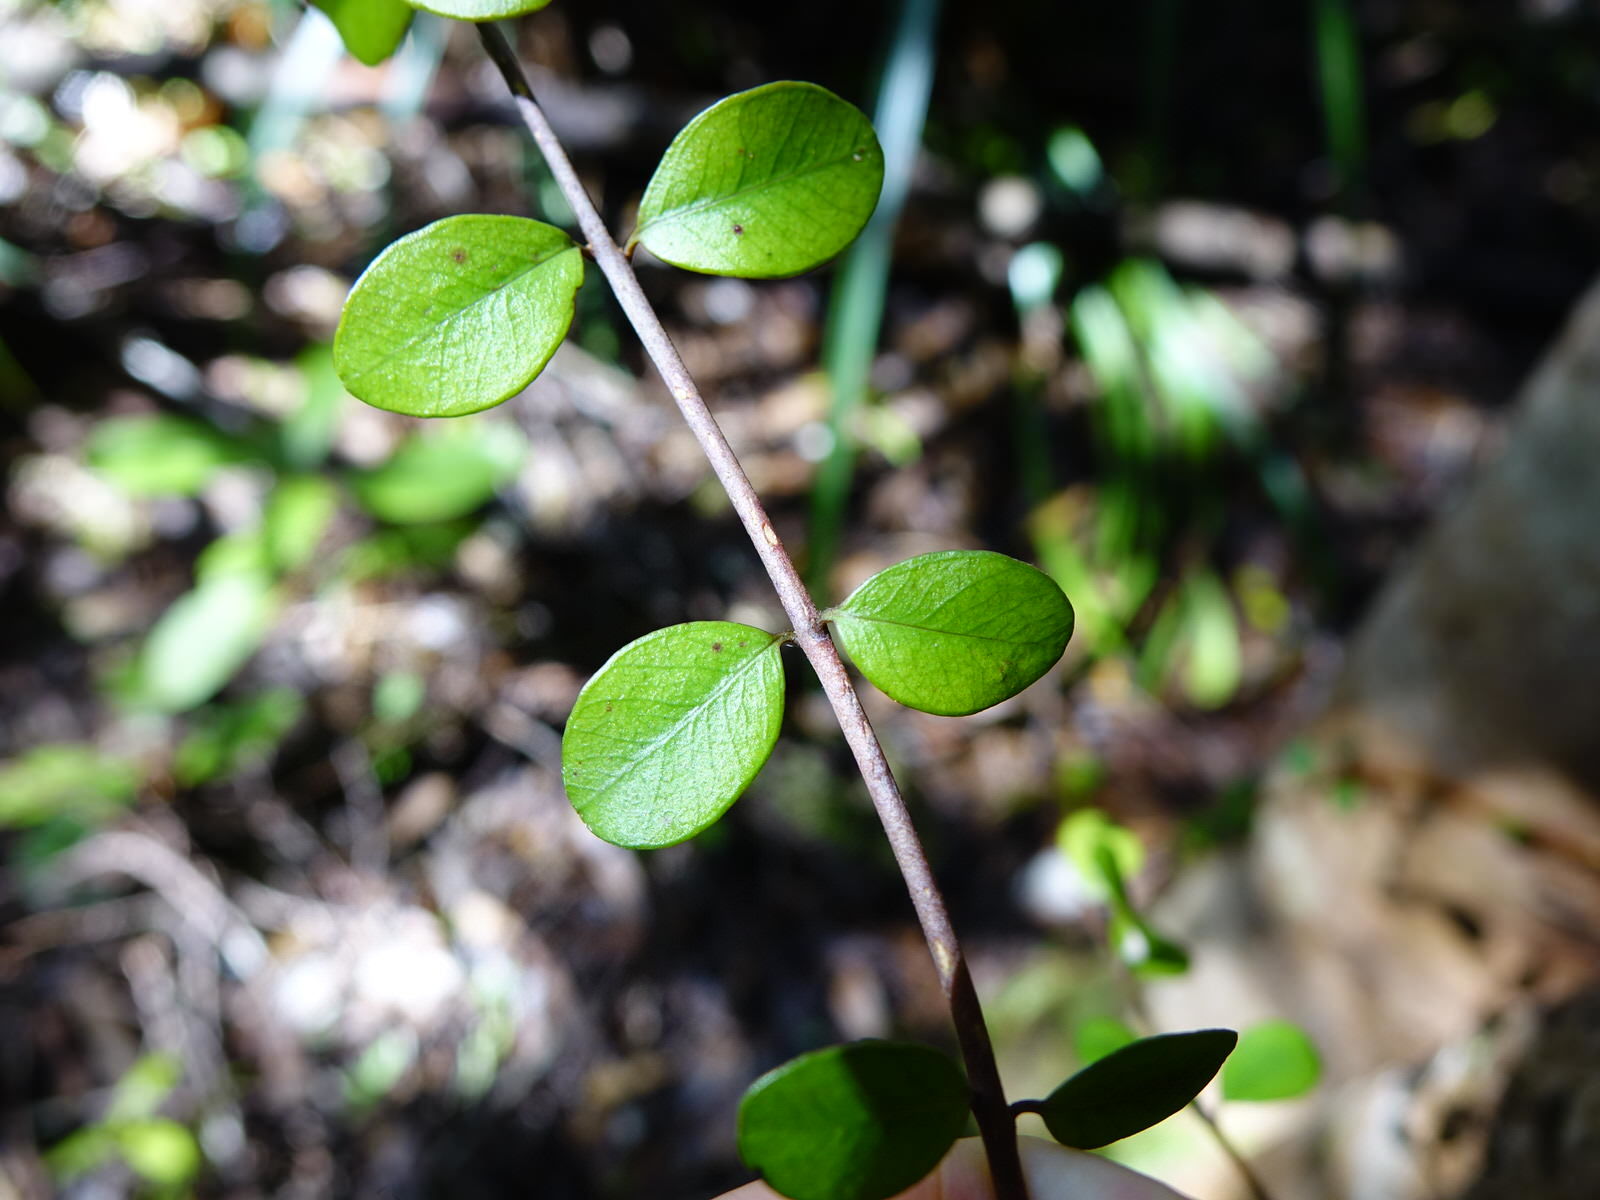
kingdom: Plantae
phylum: Tracheophyta
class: Magnoliopsida
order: Myrtales
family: Myrtaceae
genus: Metrosideros
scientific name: Metrosideros fulgens
